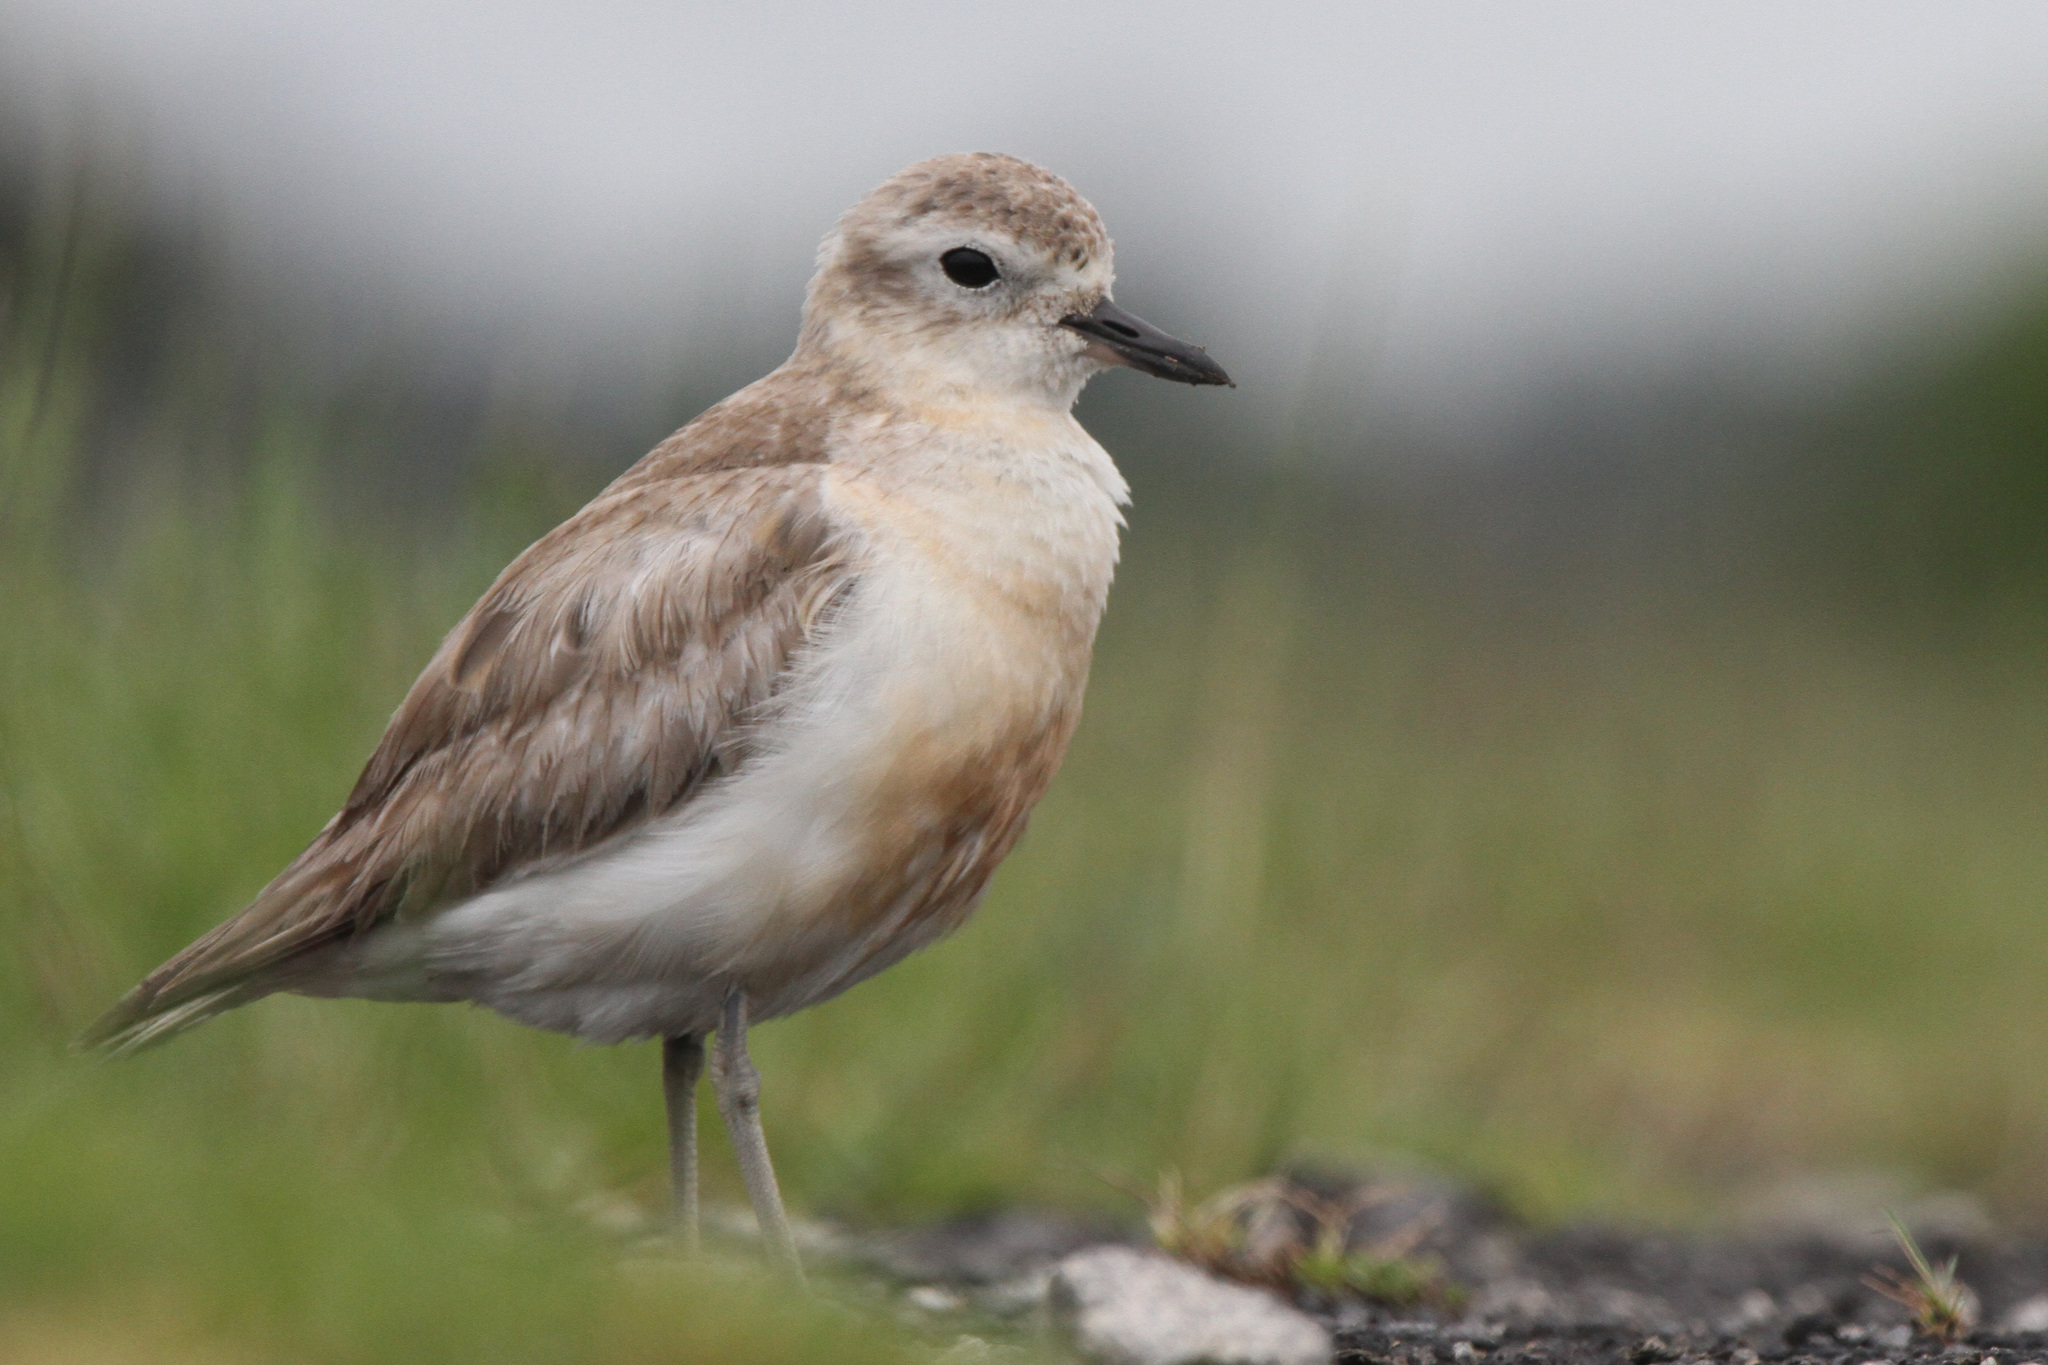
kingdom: Animalia
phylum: Chordata
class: Aves
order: Charadriiformes
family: Charadriidae
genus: Anarhynchus
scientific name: Anarhynchus
